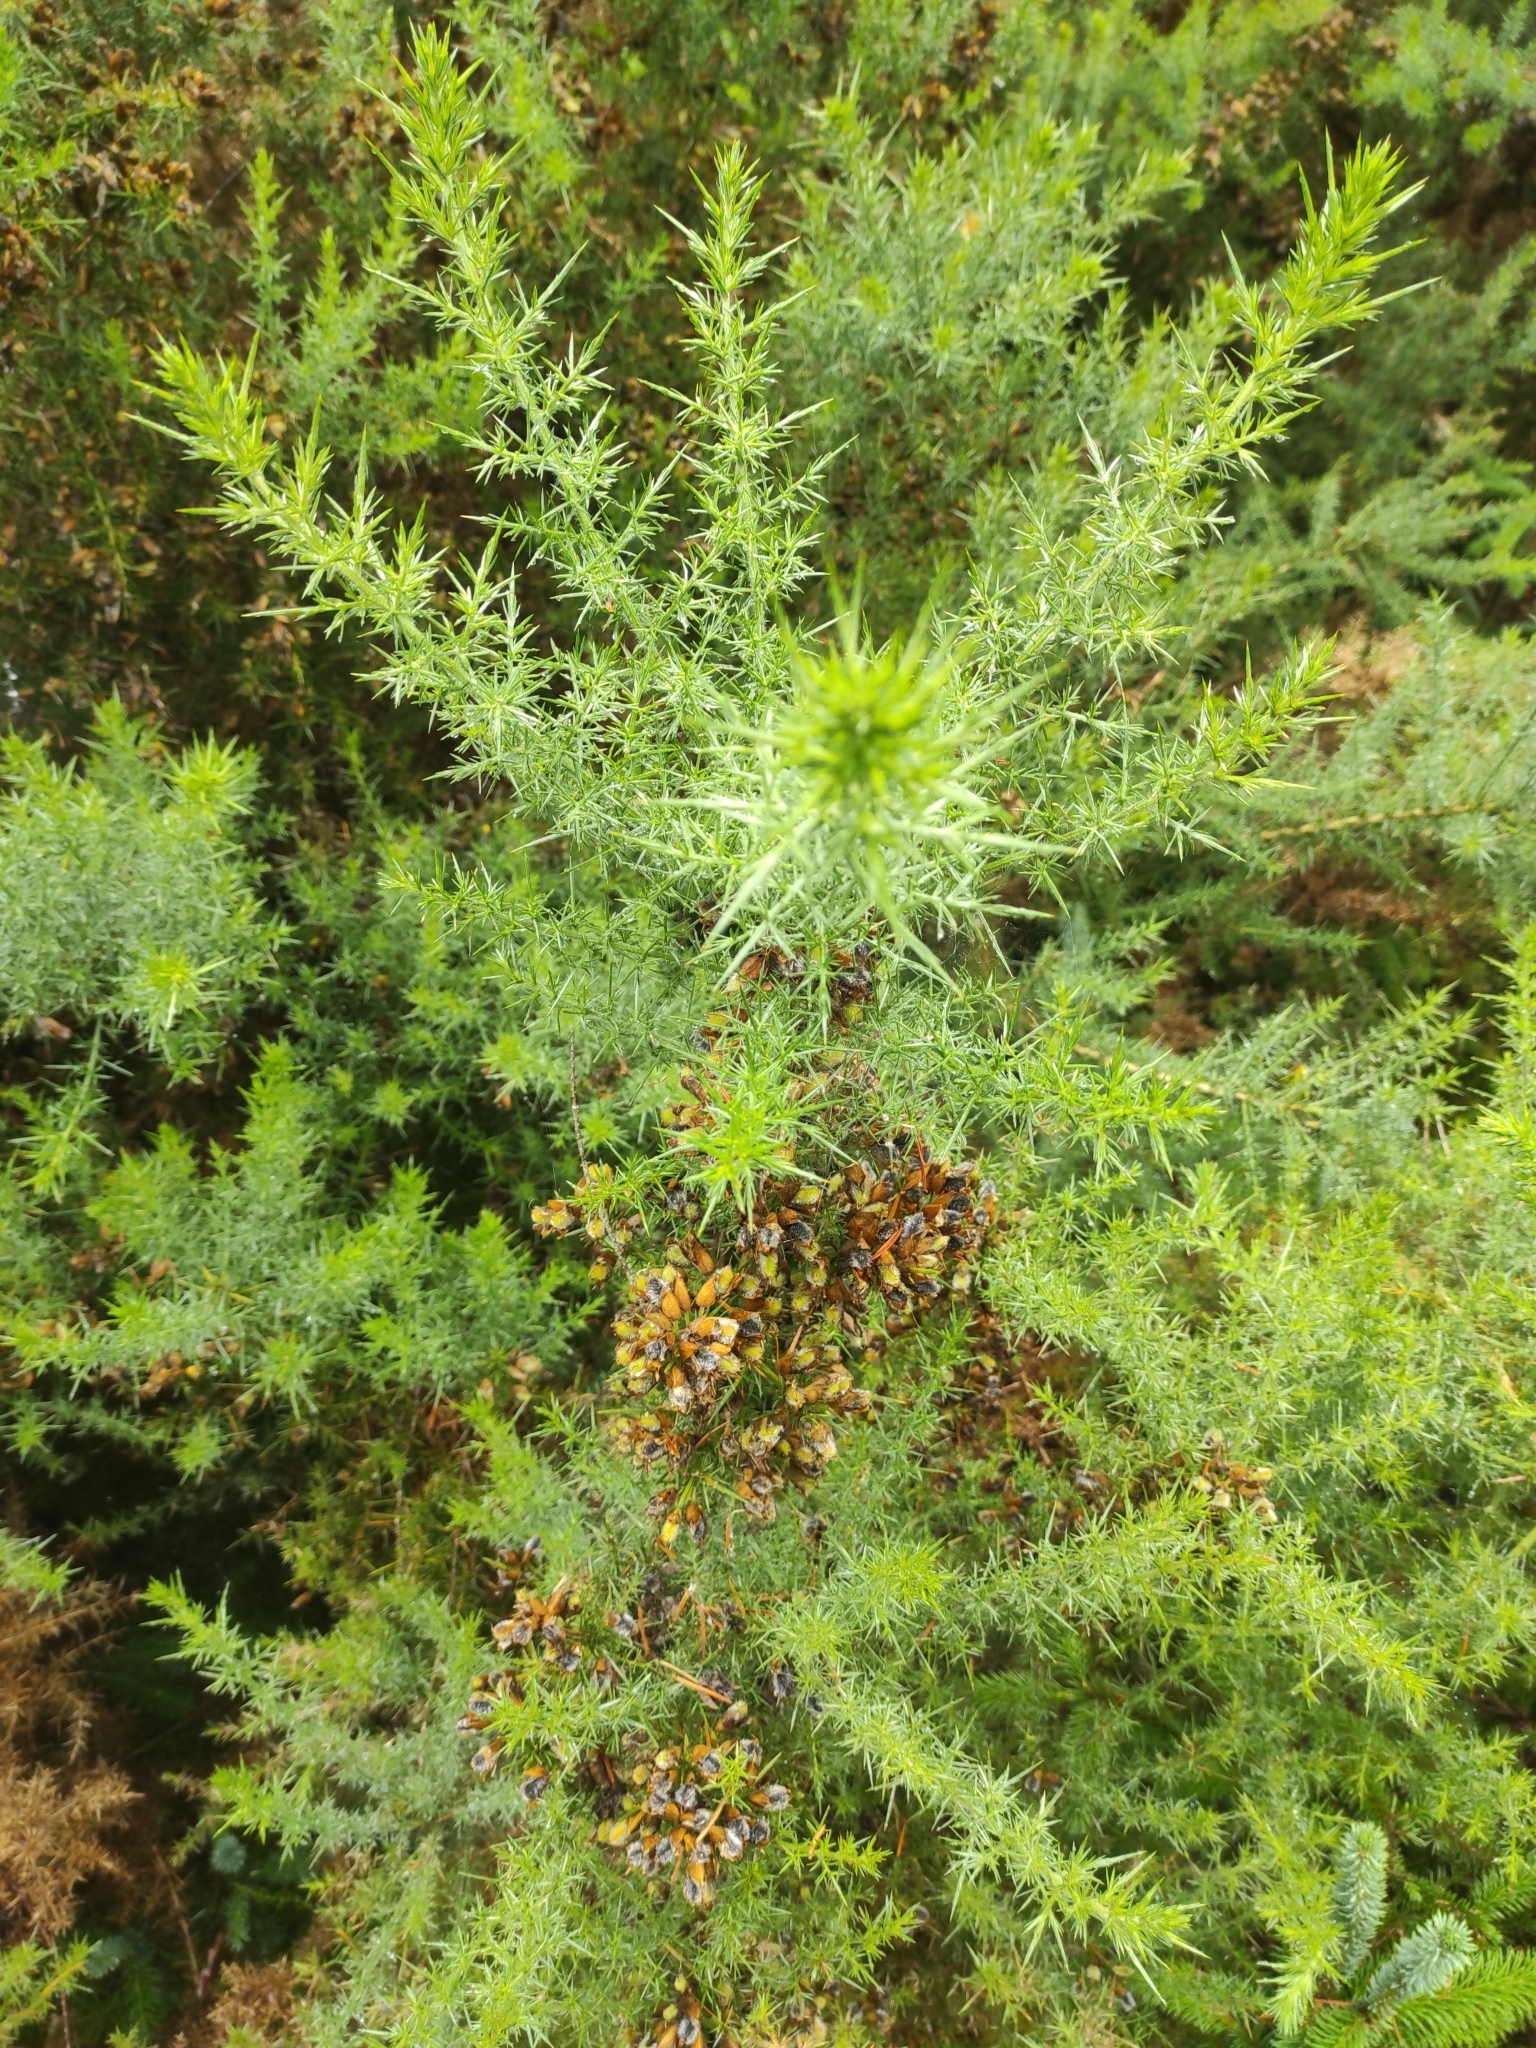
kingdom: Plantae
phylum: Tracheophyta
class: Magnoliopsida
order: Fabales
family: Fabaceae
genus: Ulex
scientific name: Ulex europaeus
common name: Common gorse
